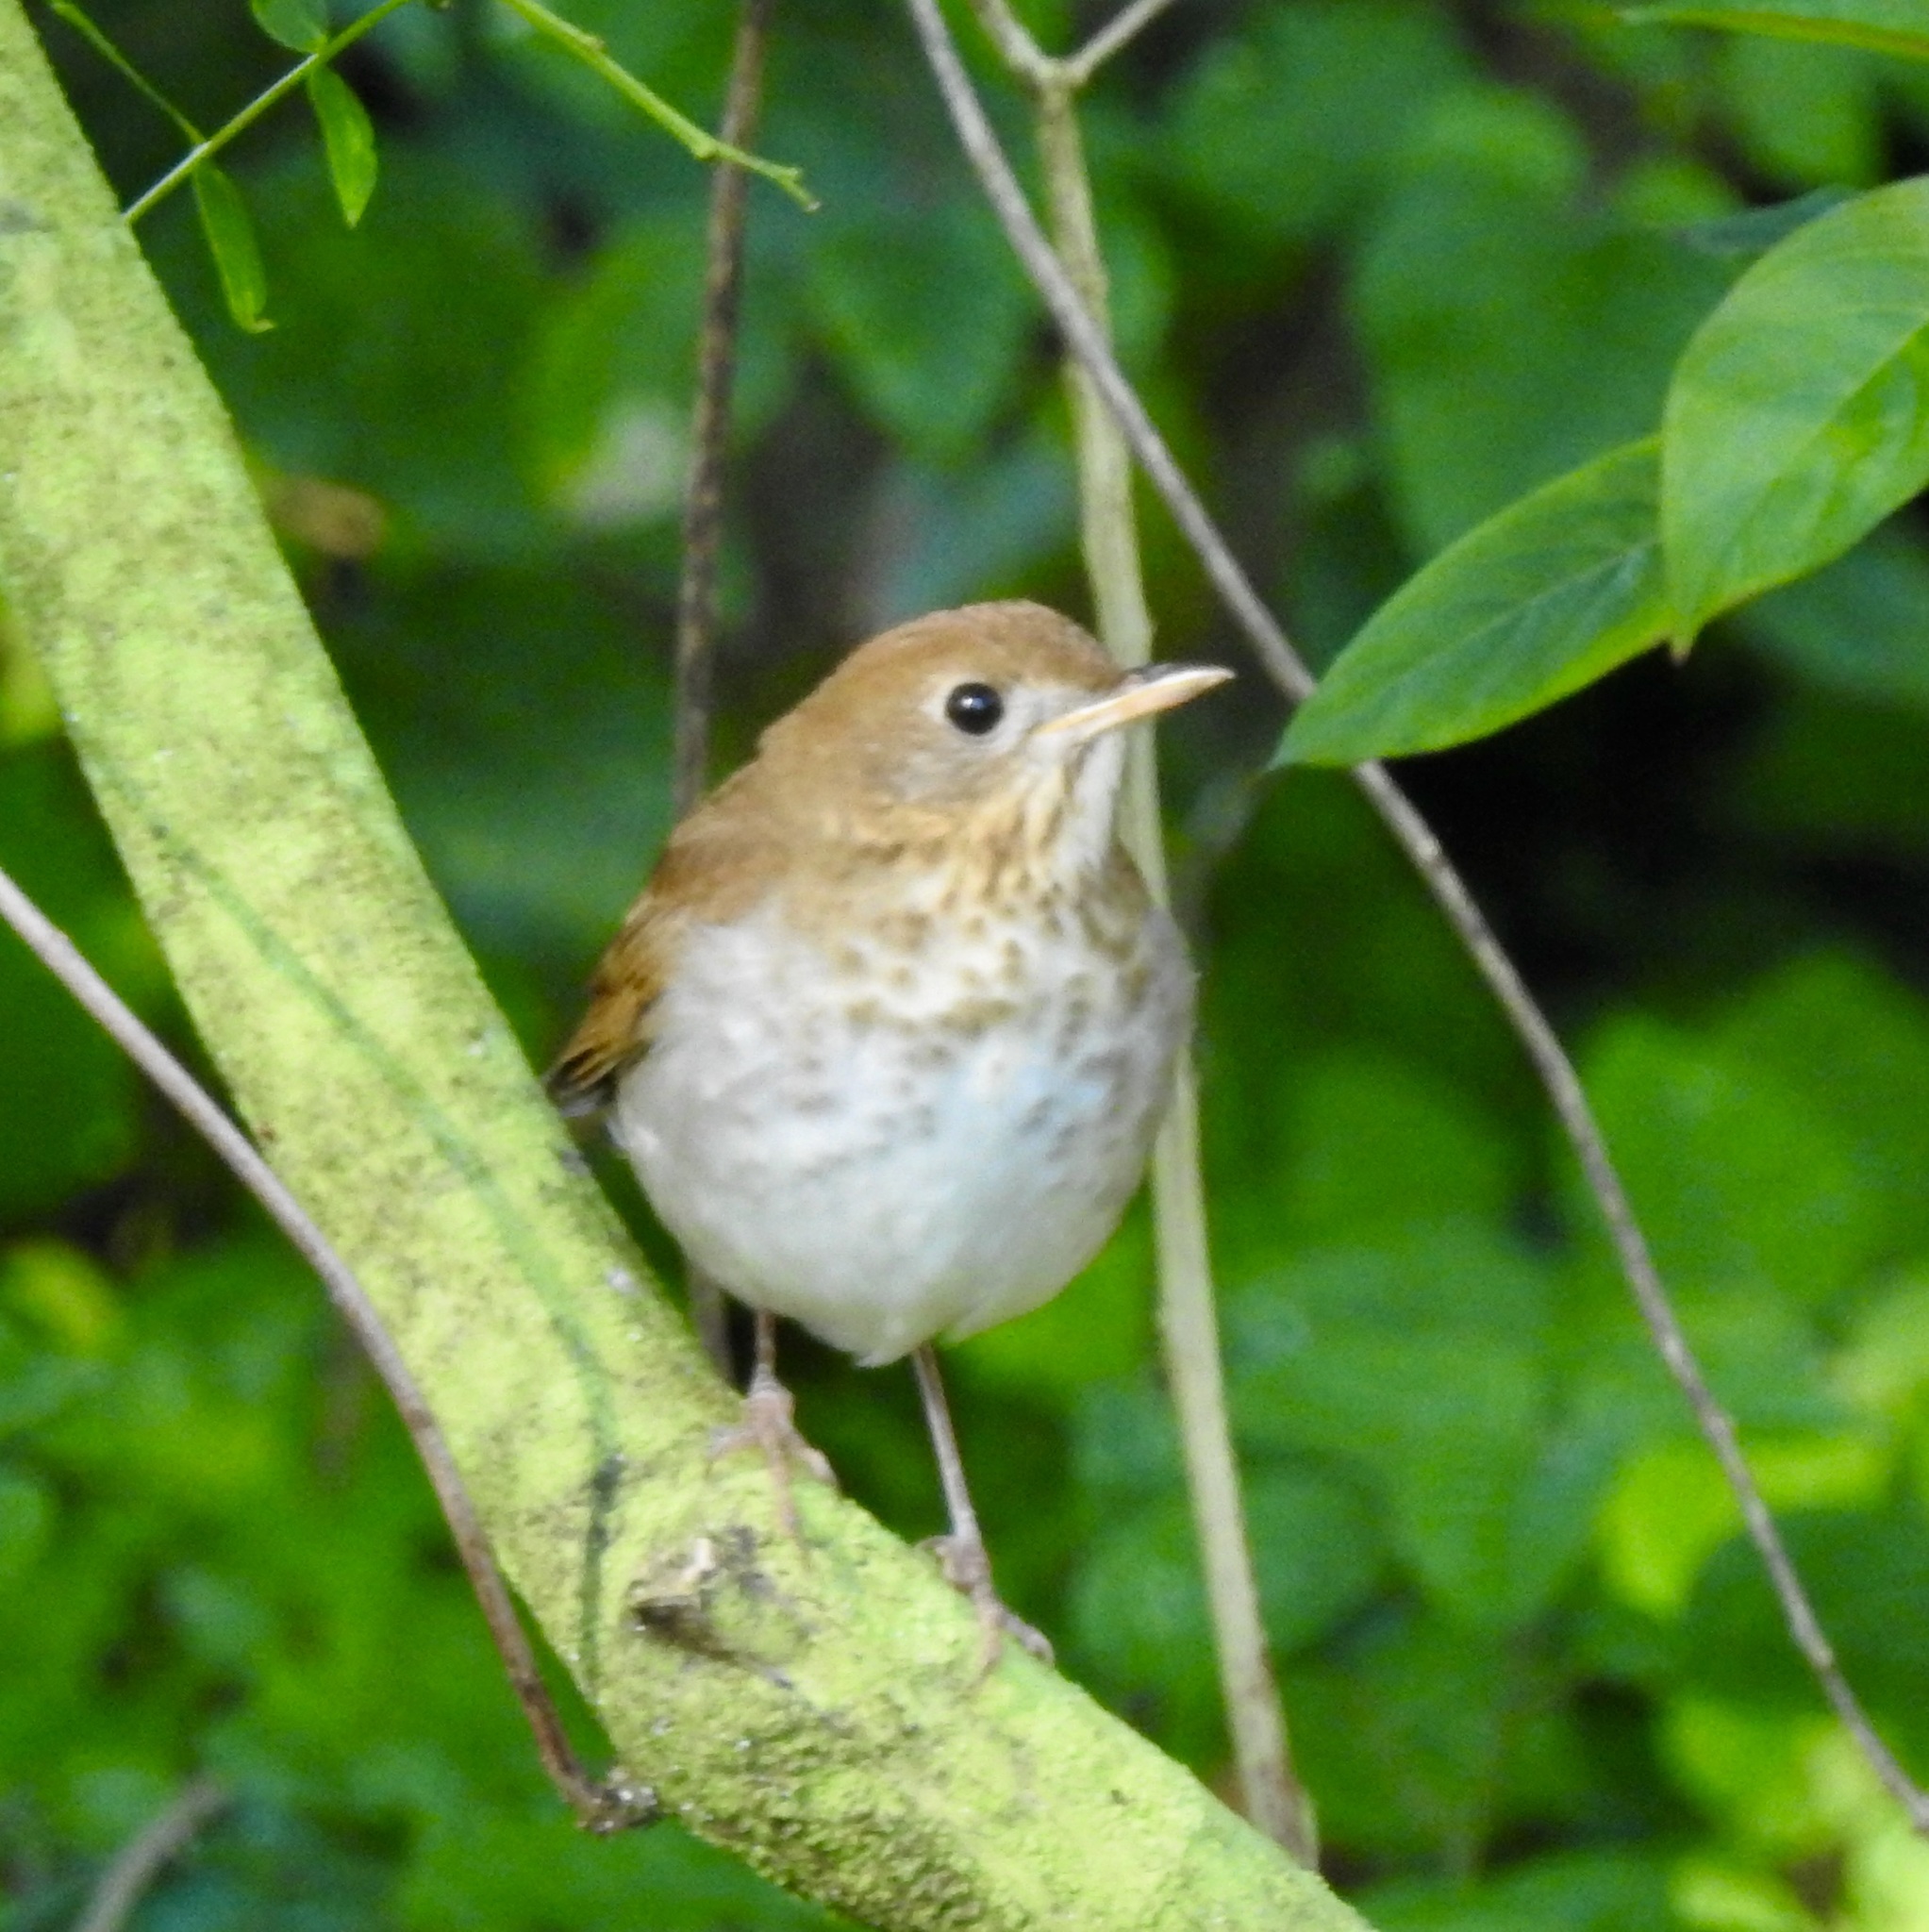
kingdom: Animalia
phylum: Chordata
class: Aves
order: Passeriformes
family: Turdidae
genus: Catharus
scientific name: Catharus fuscescens
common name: Veery
